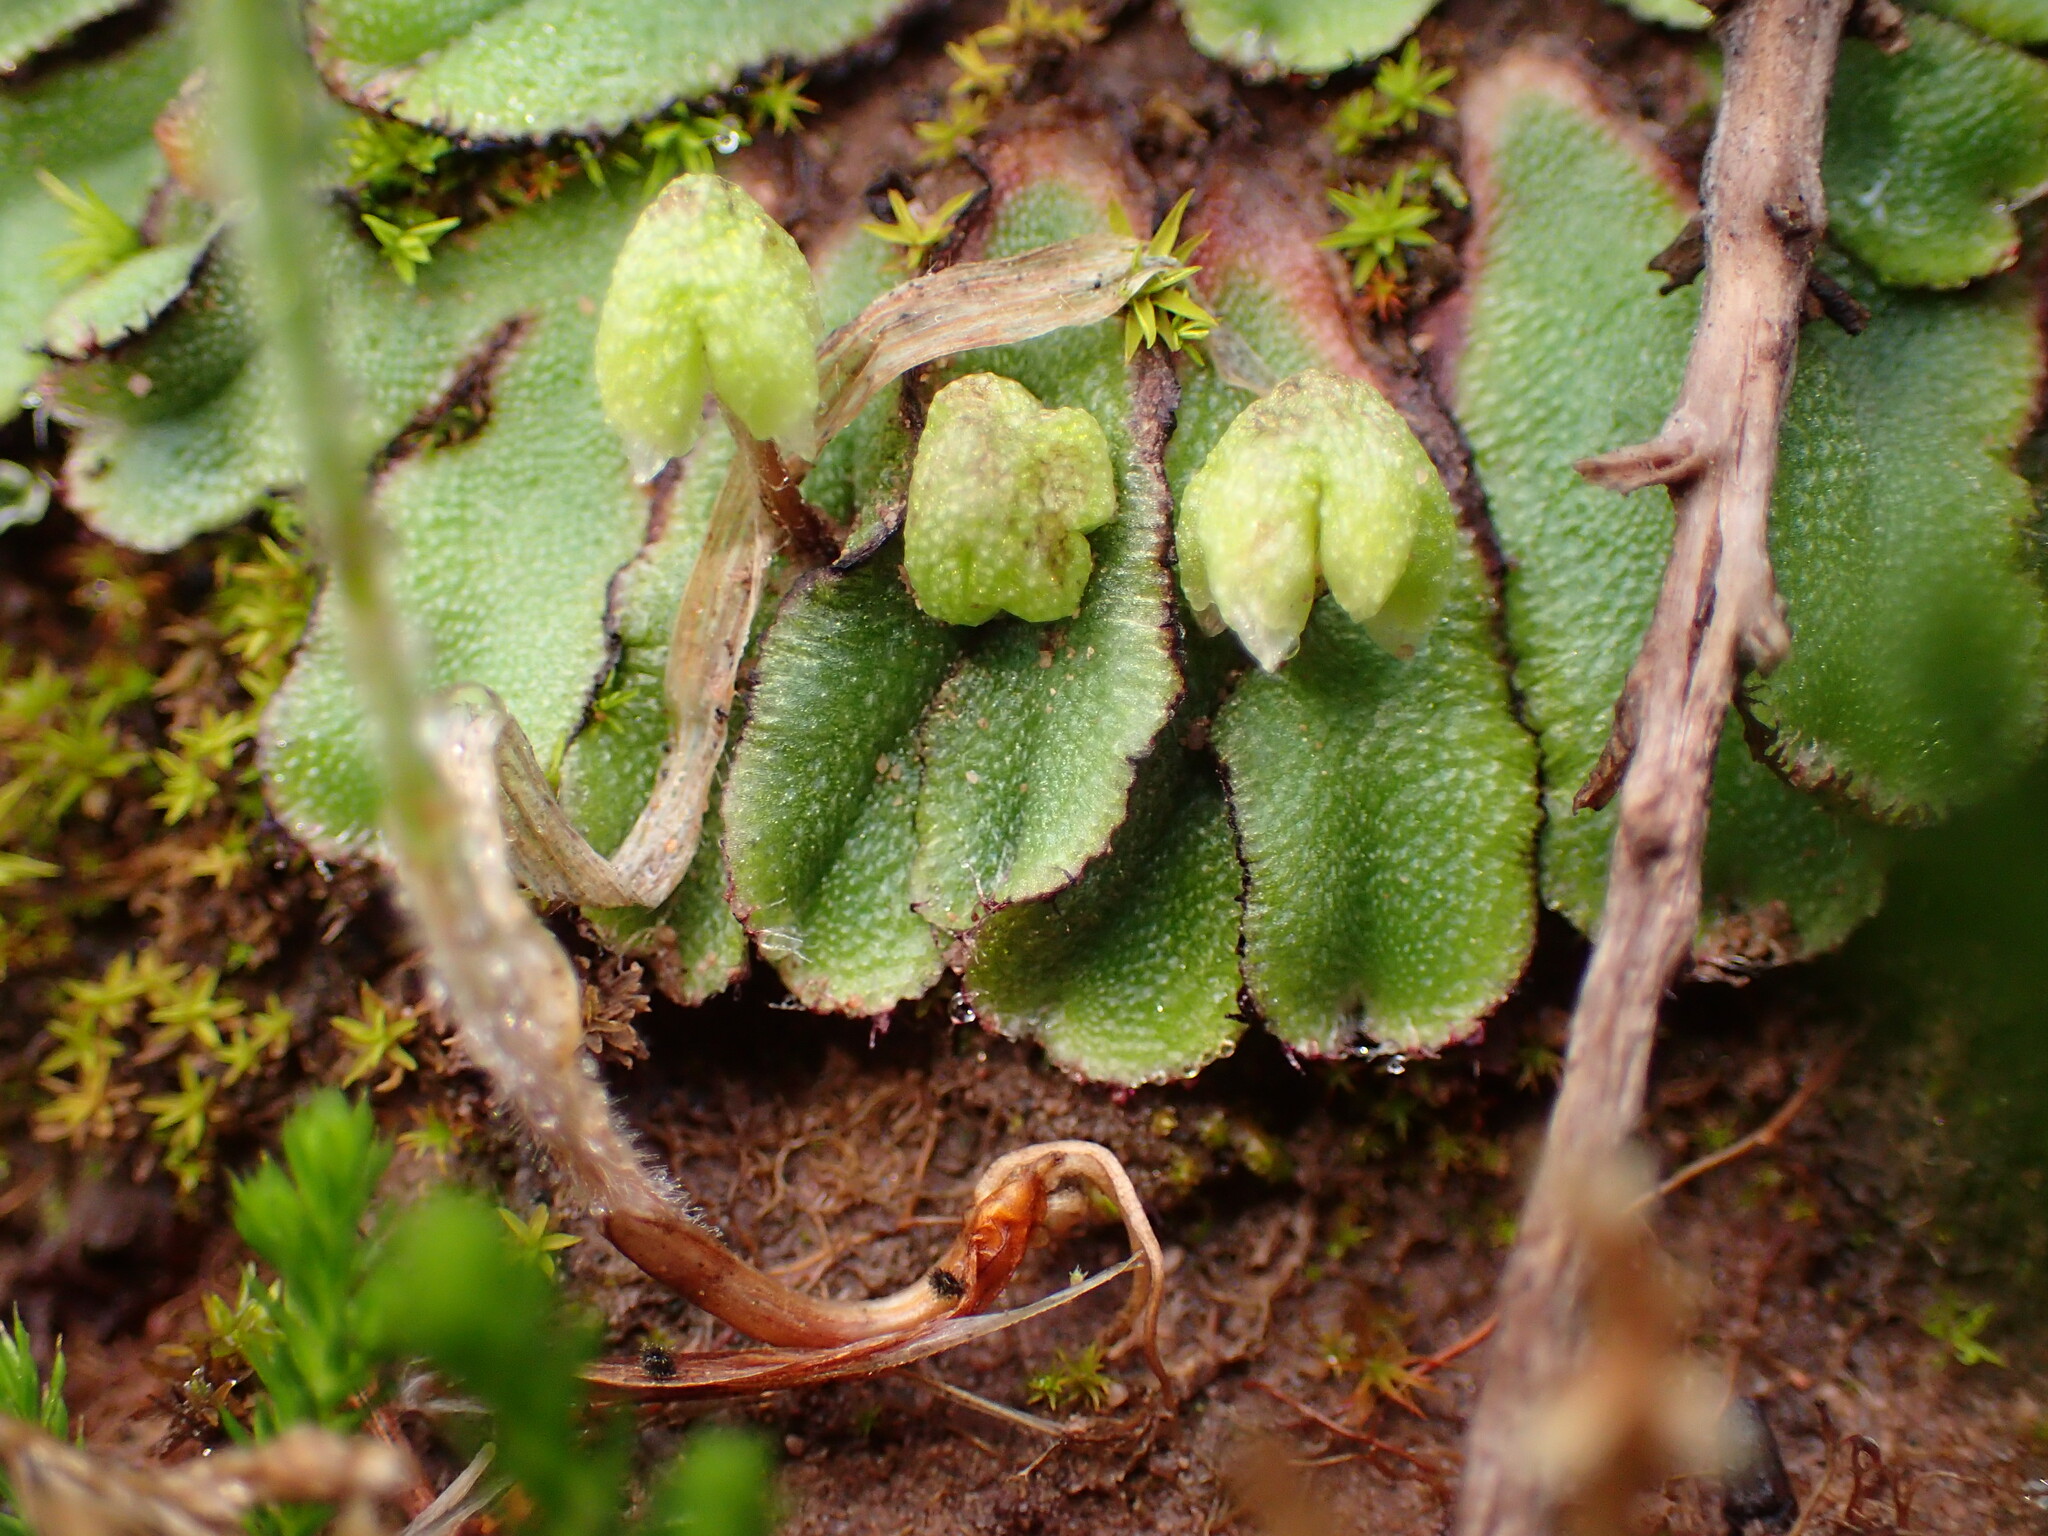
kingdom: Plantae
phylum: Marchantiophyta
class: Marchantiopsida
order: Marchantiales
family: Aytoniaceae
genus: Asterella
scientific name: Asterella californica
